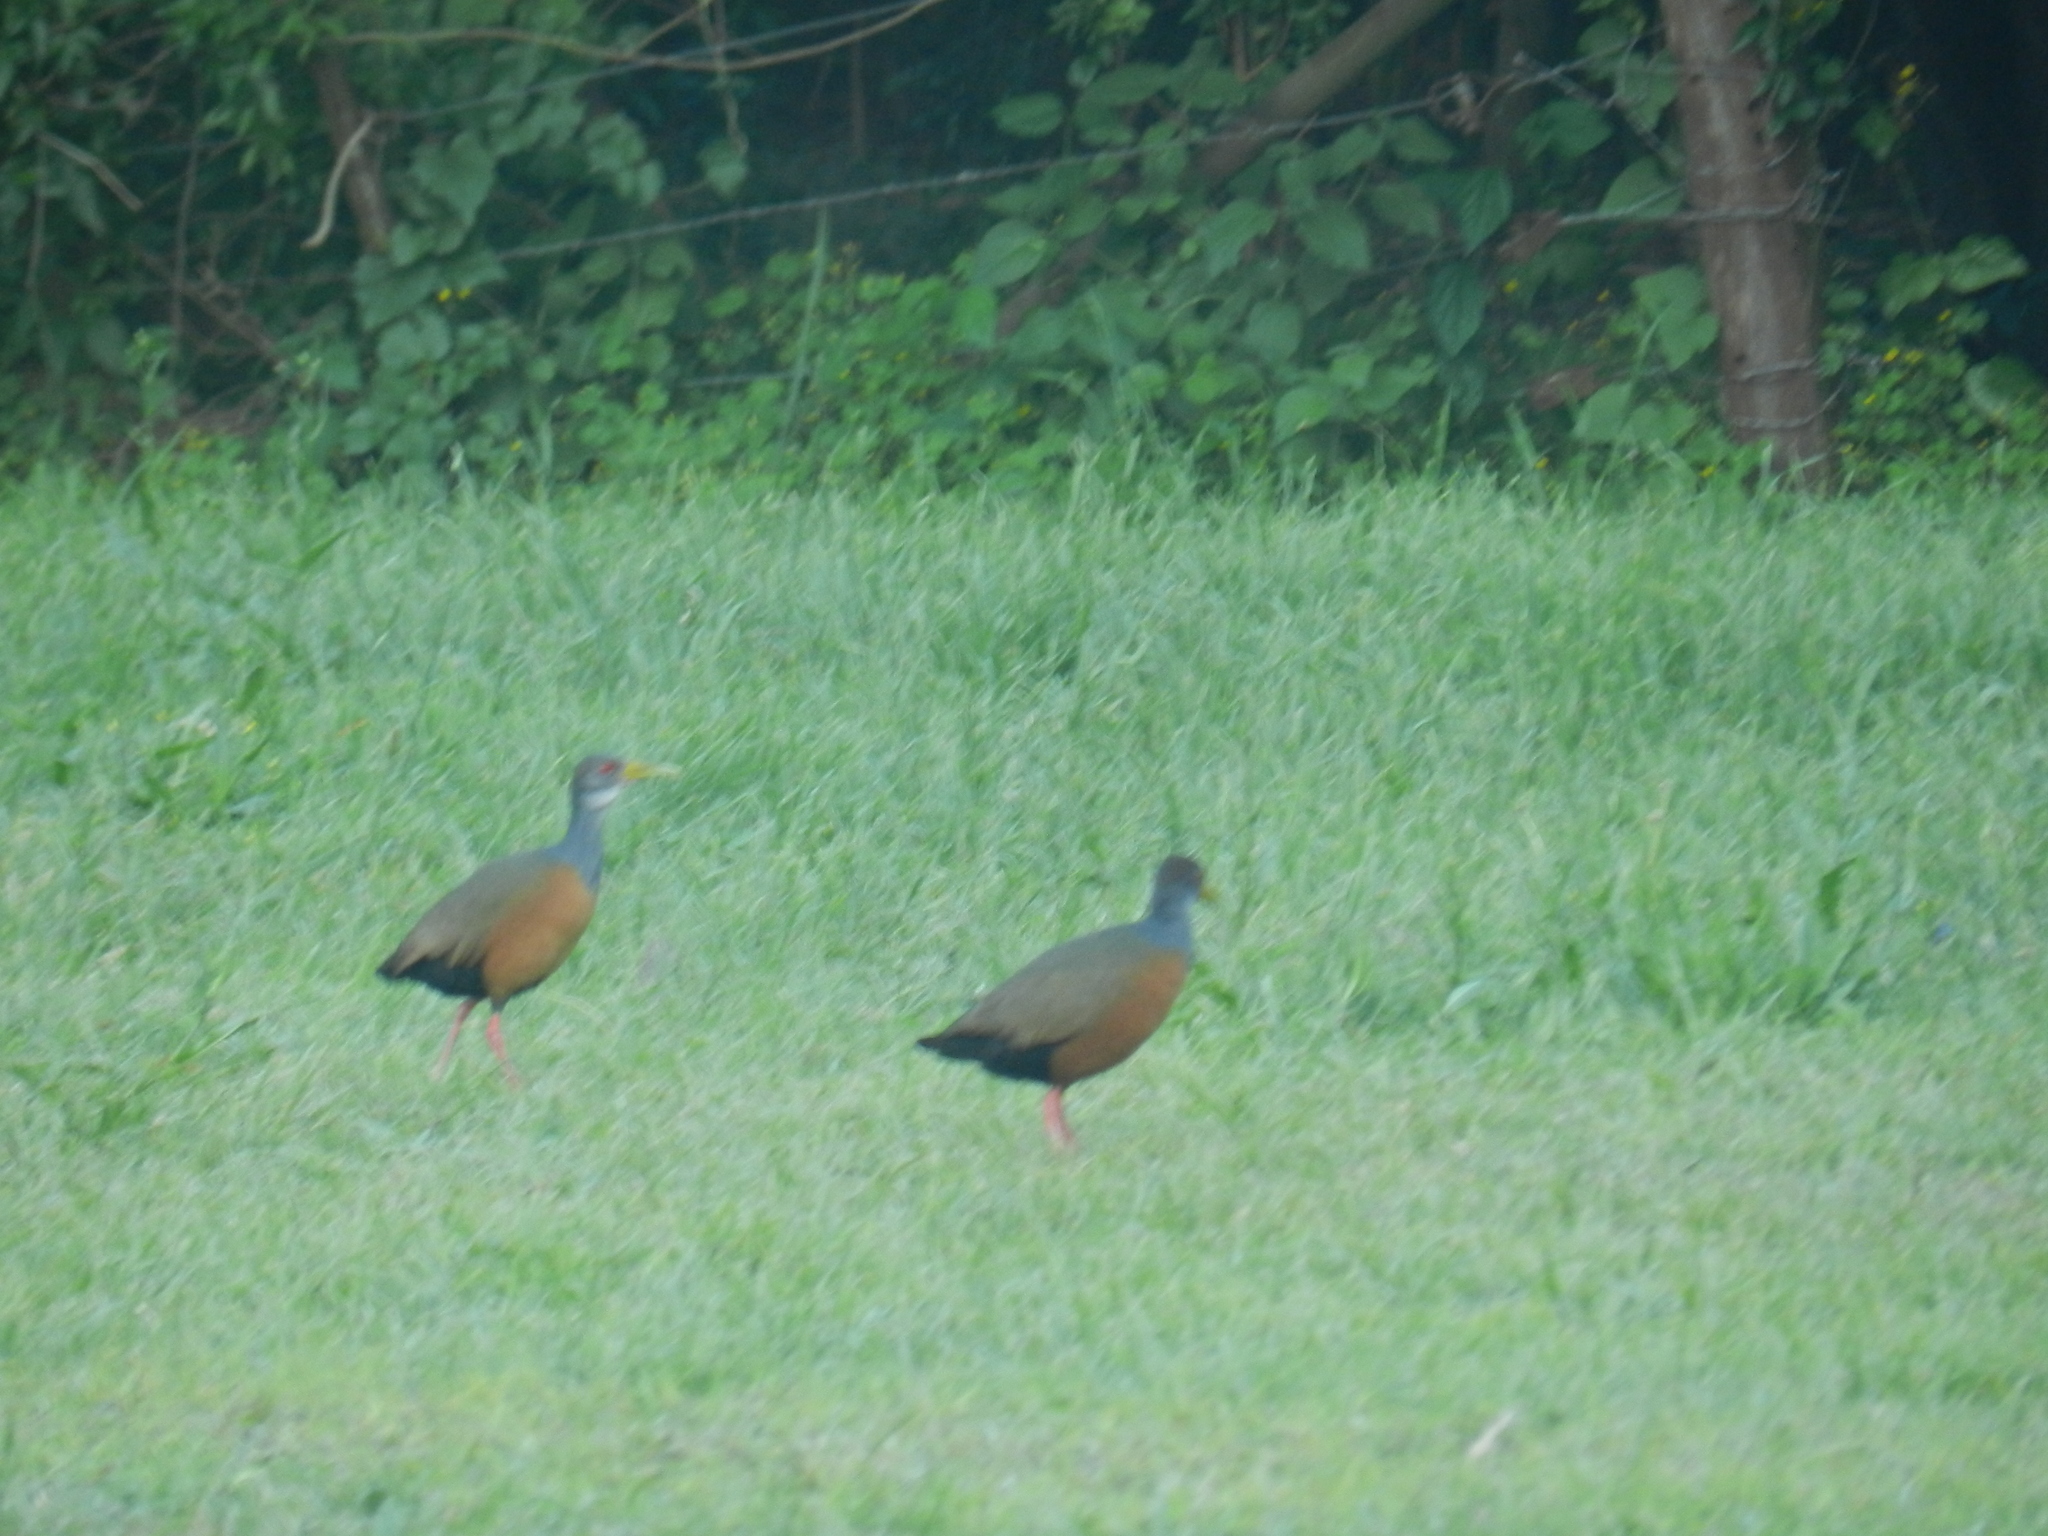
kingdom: Animalia
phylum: Chordata
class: Aves
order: Gruiformes
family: Rallidae
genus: Aramides
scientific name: Aramides cajanea
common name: Gray-necked wood-rail
